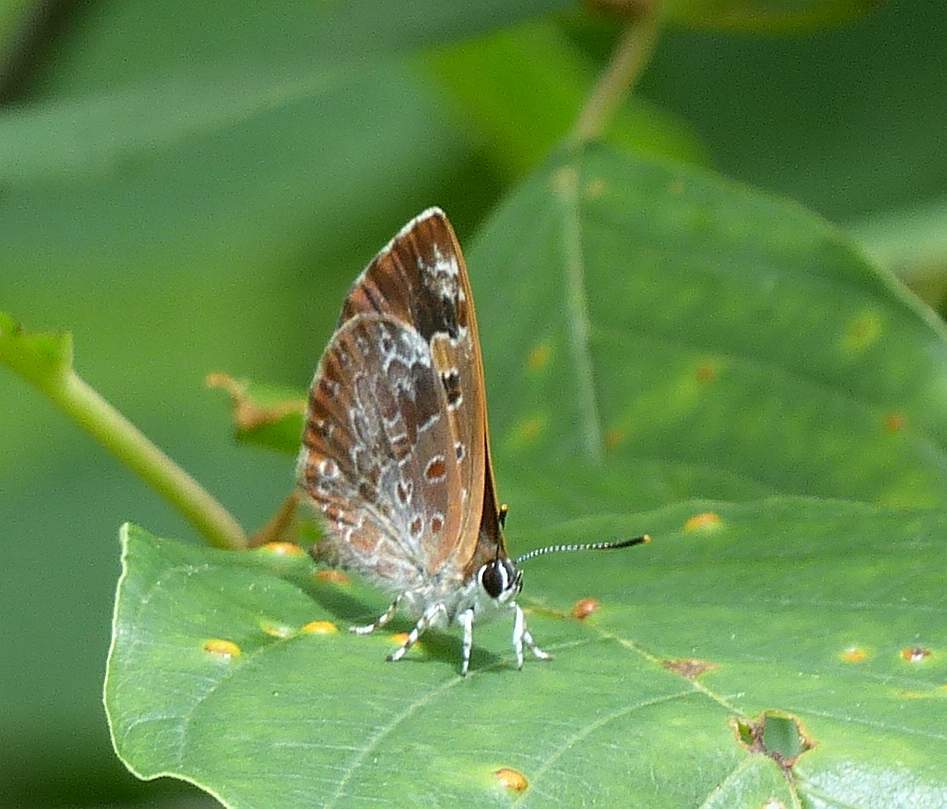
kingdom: Animalia
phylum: Arthropoda
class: Insecta
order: Lepidoptera
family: Lycaenidae
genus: Feniseca
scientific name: Feniseca tarquinius
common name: Harvester
